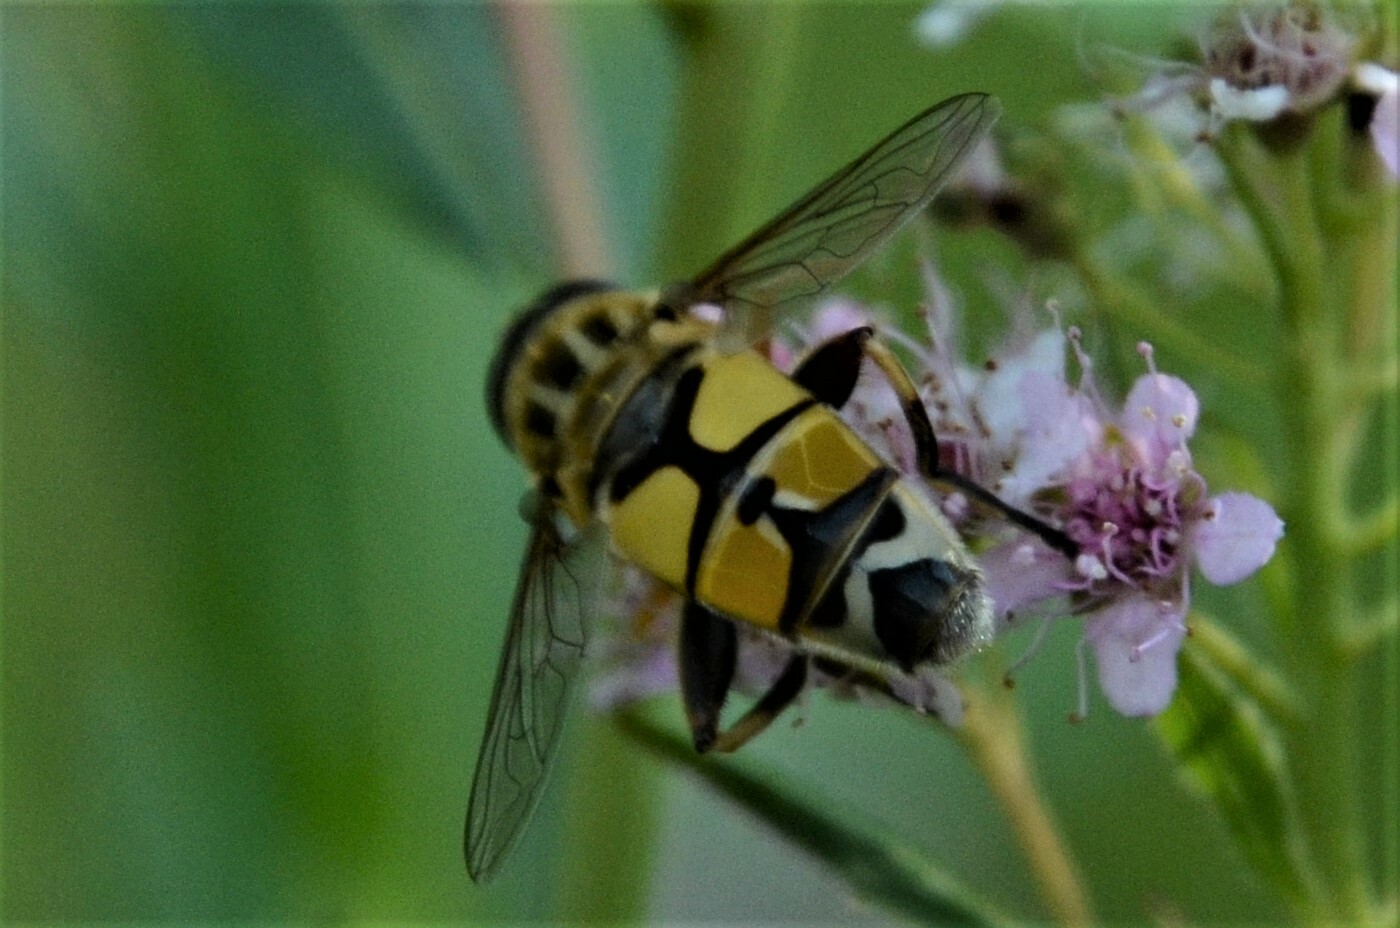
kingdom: Animalia
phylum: Arthropoda
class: Insecta
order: Diptera
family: Syrphidae
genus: Helophilus
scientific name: Helophilus trivittatus
